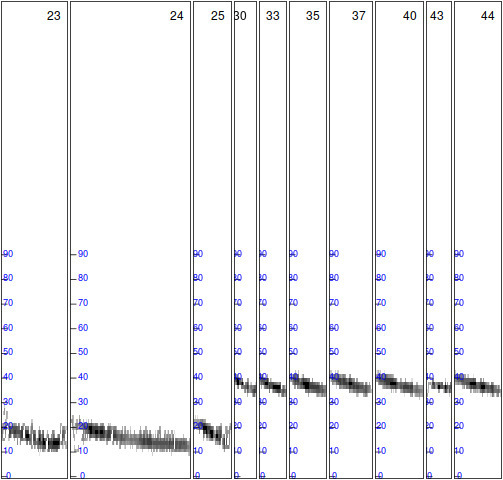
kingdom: Animalia
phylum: Chordata
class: Mammalia
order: Chiroptera
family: Vespertilionidae
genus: Pipistrellus
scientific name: Pipistrellus kuhlii
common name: Kuhl's pipistrelle
